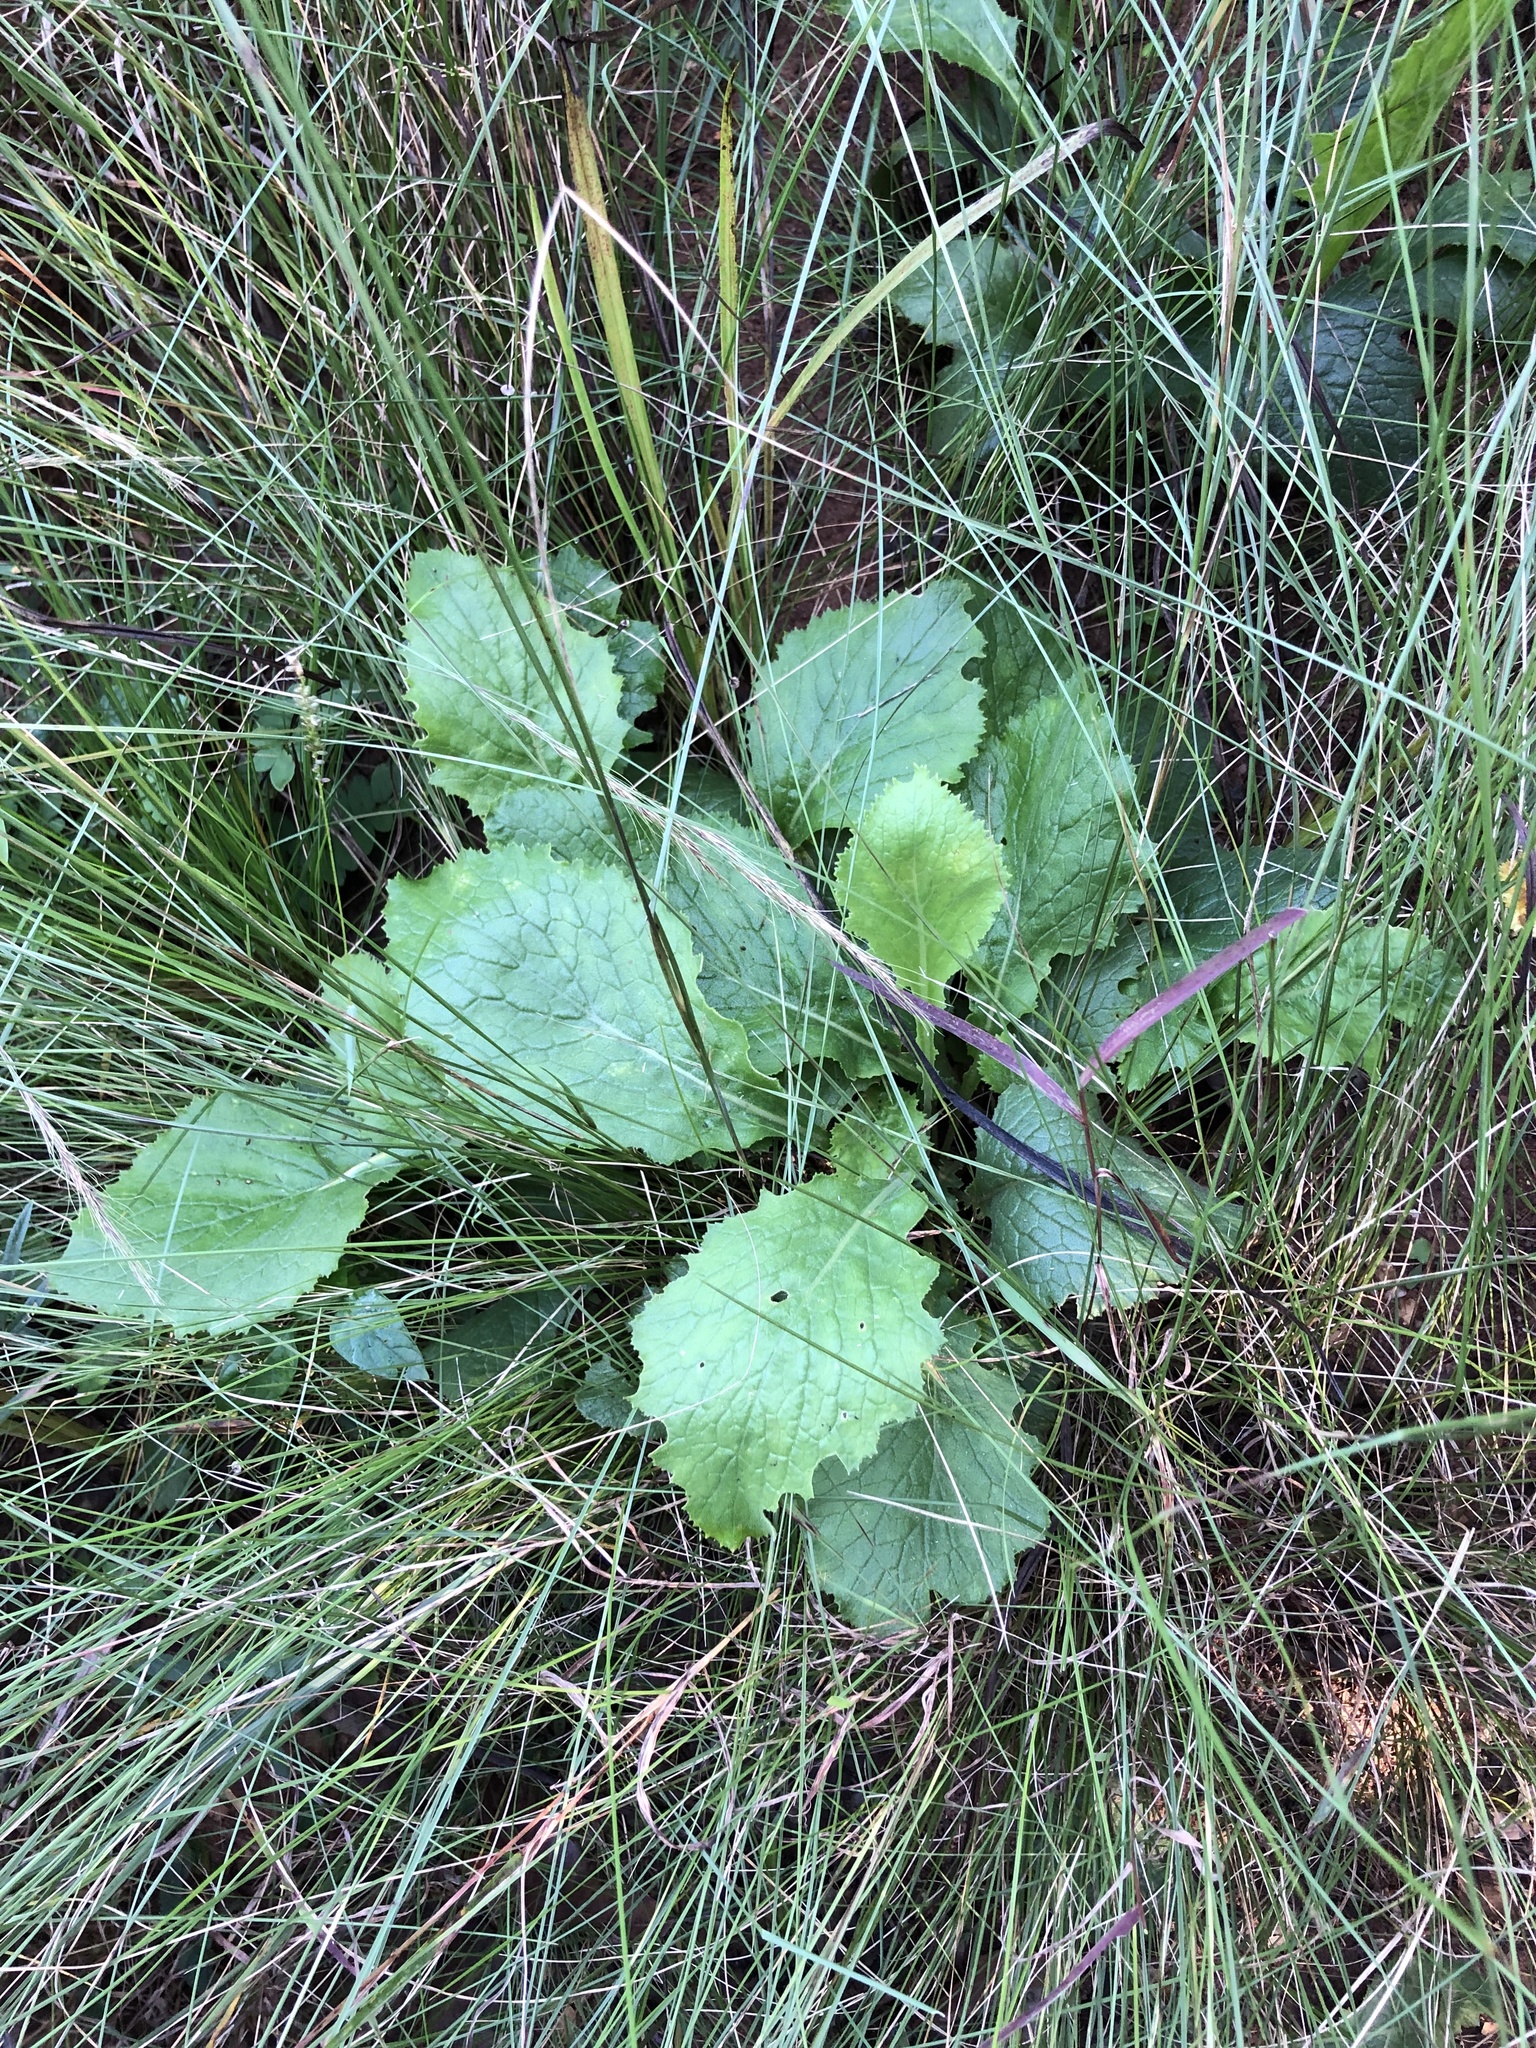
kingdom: Plantae
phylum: Tracheophyta
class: Magnoliopsida
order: Asterales
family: Asteraceae
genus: Senecio
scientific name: Senecio variabilis
